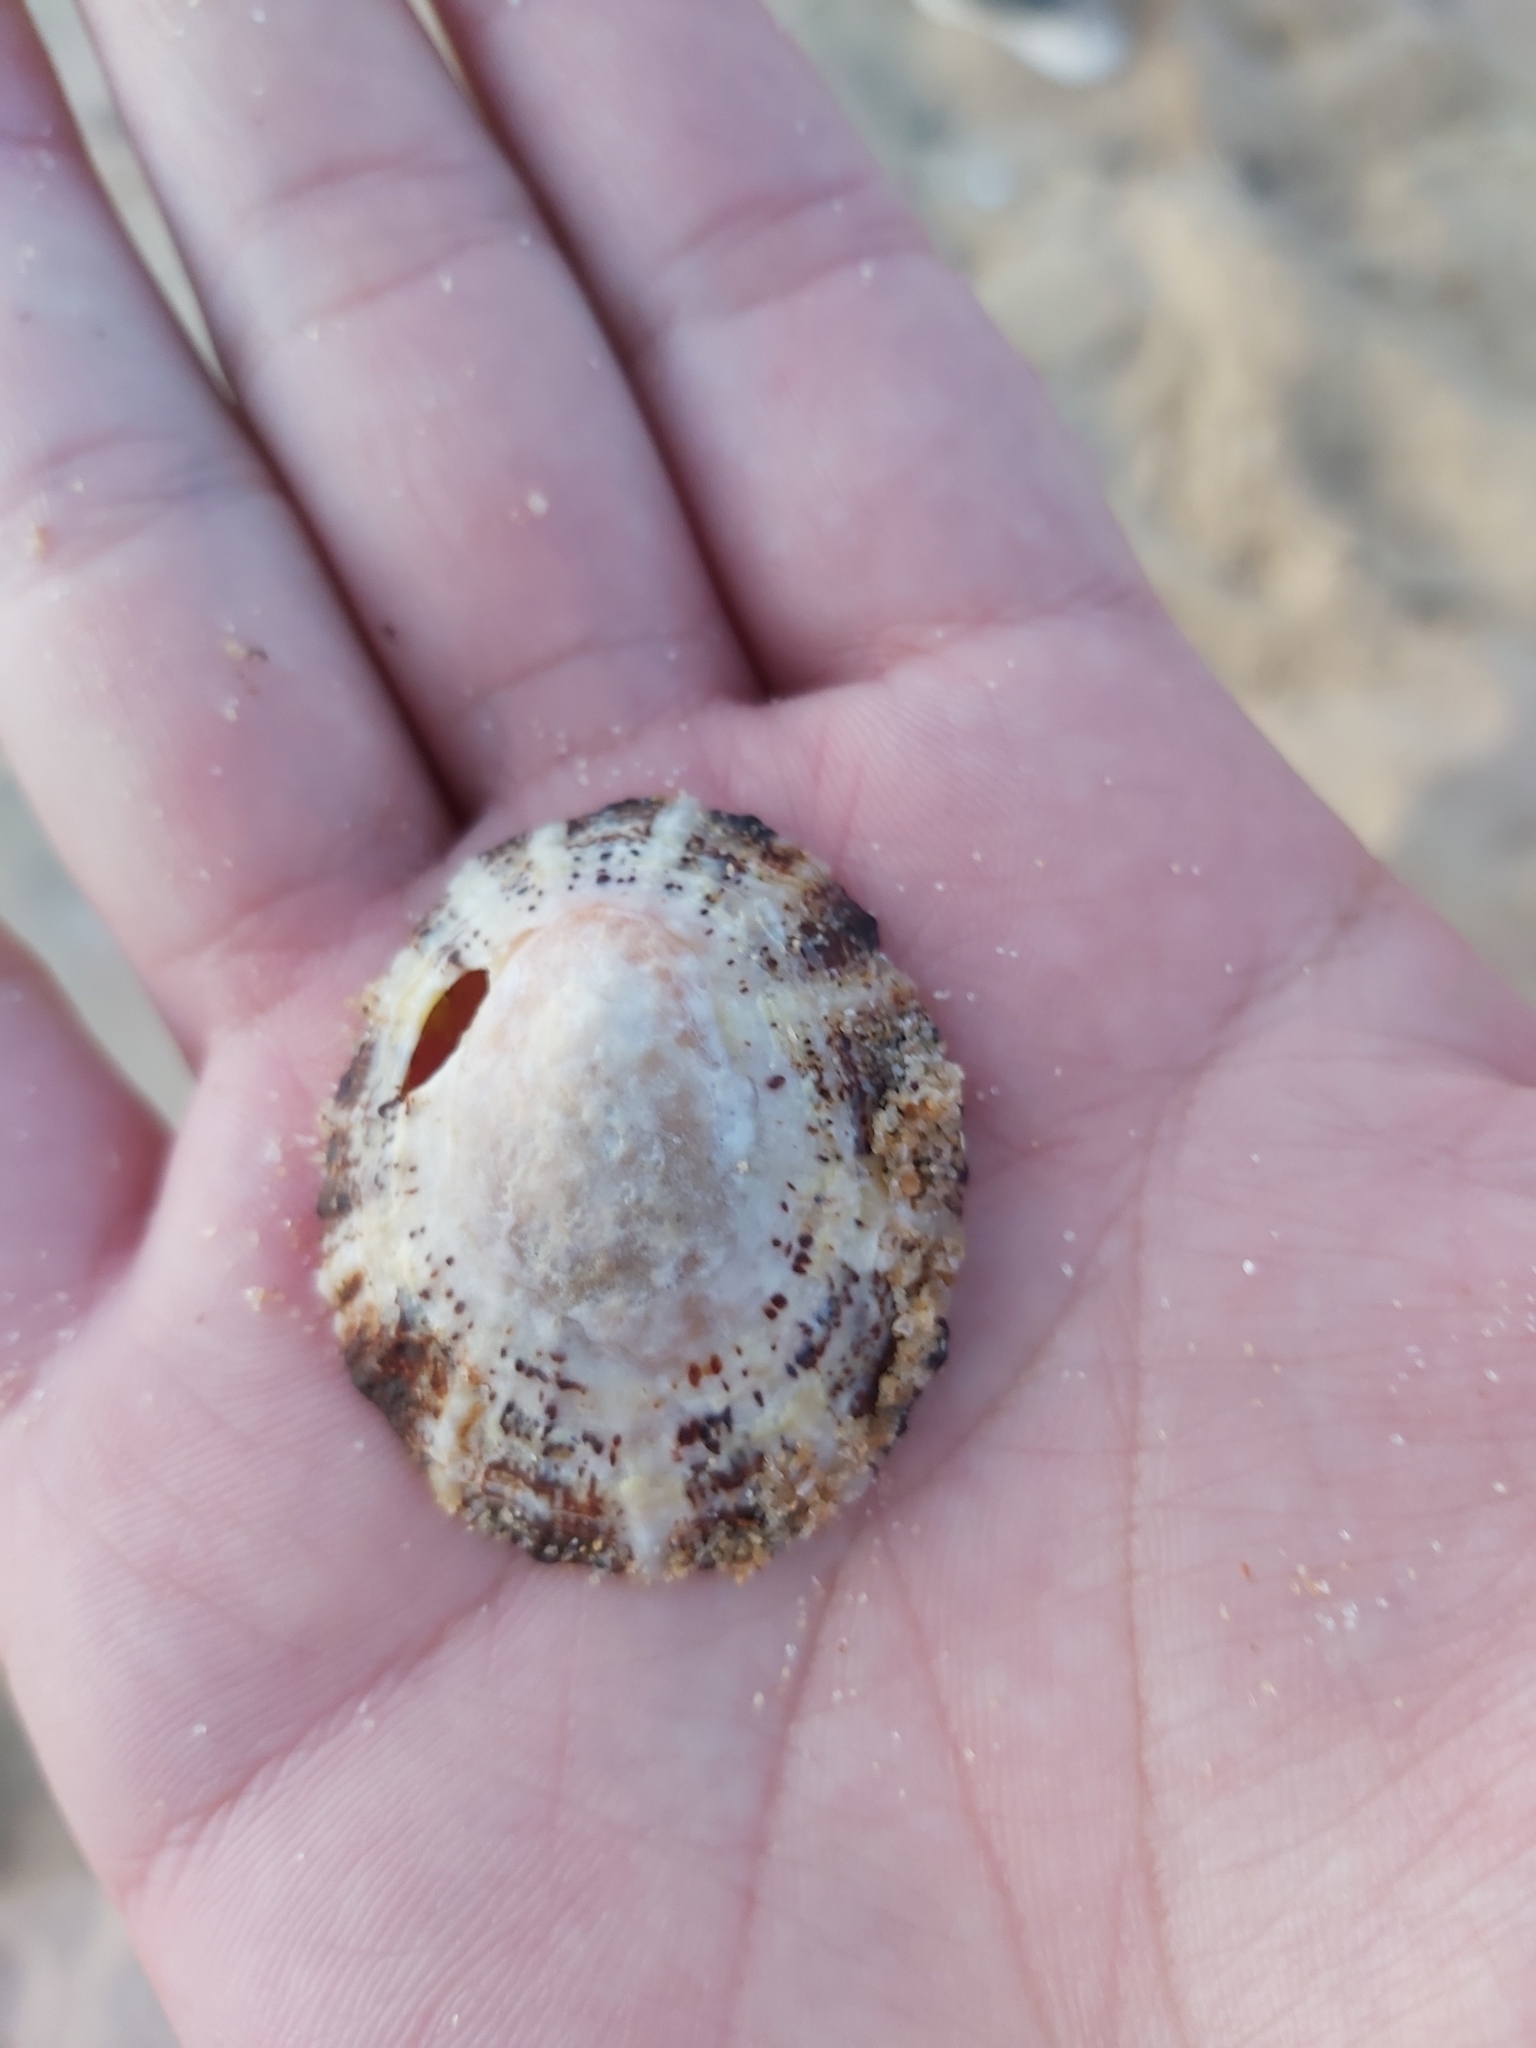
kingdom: Animalia
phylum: Mollusca
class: Gastropoda
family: Nacellidae
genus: Cellana
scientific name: Cellana tramoserica
